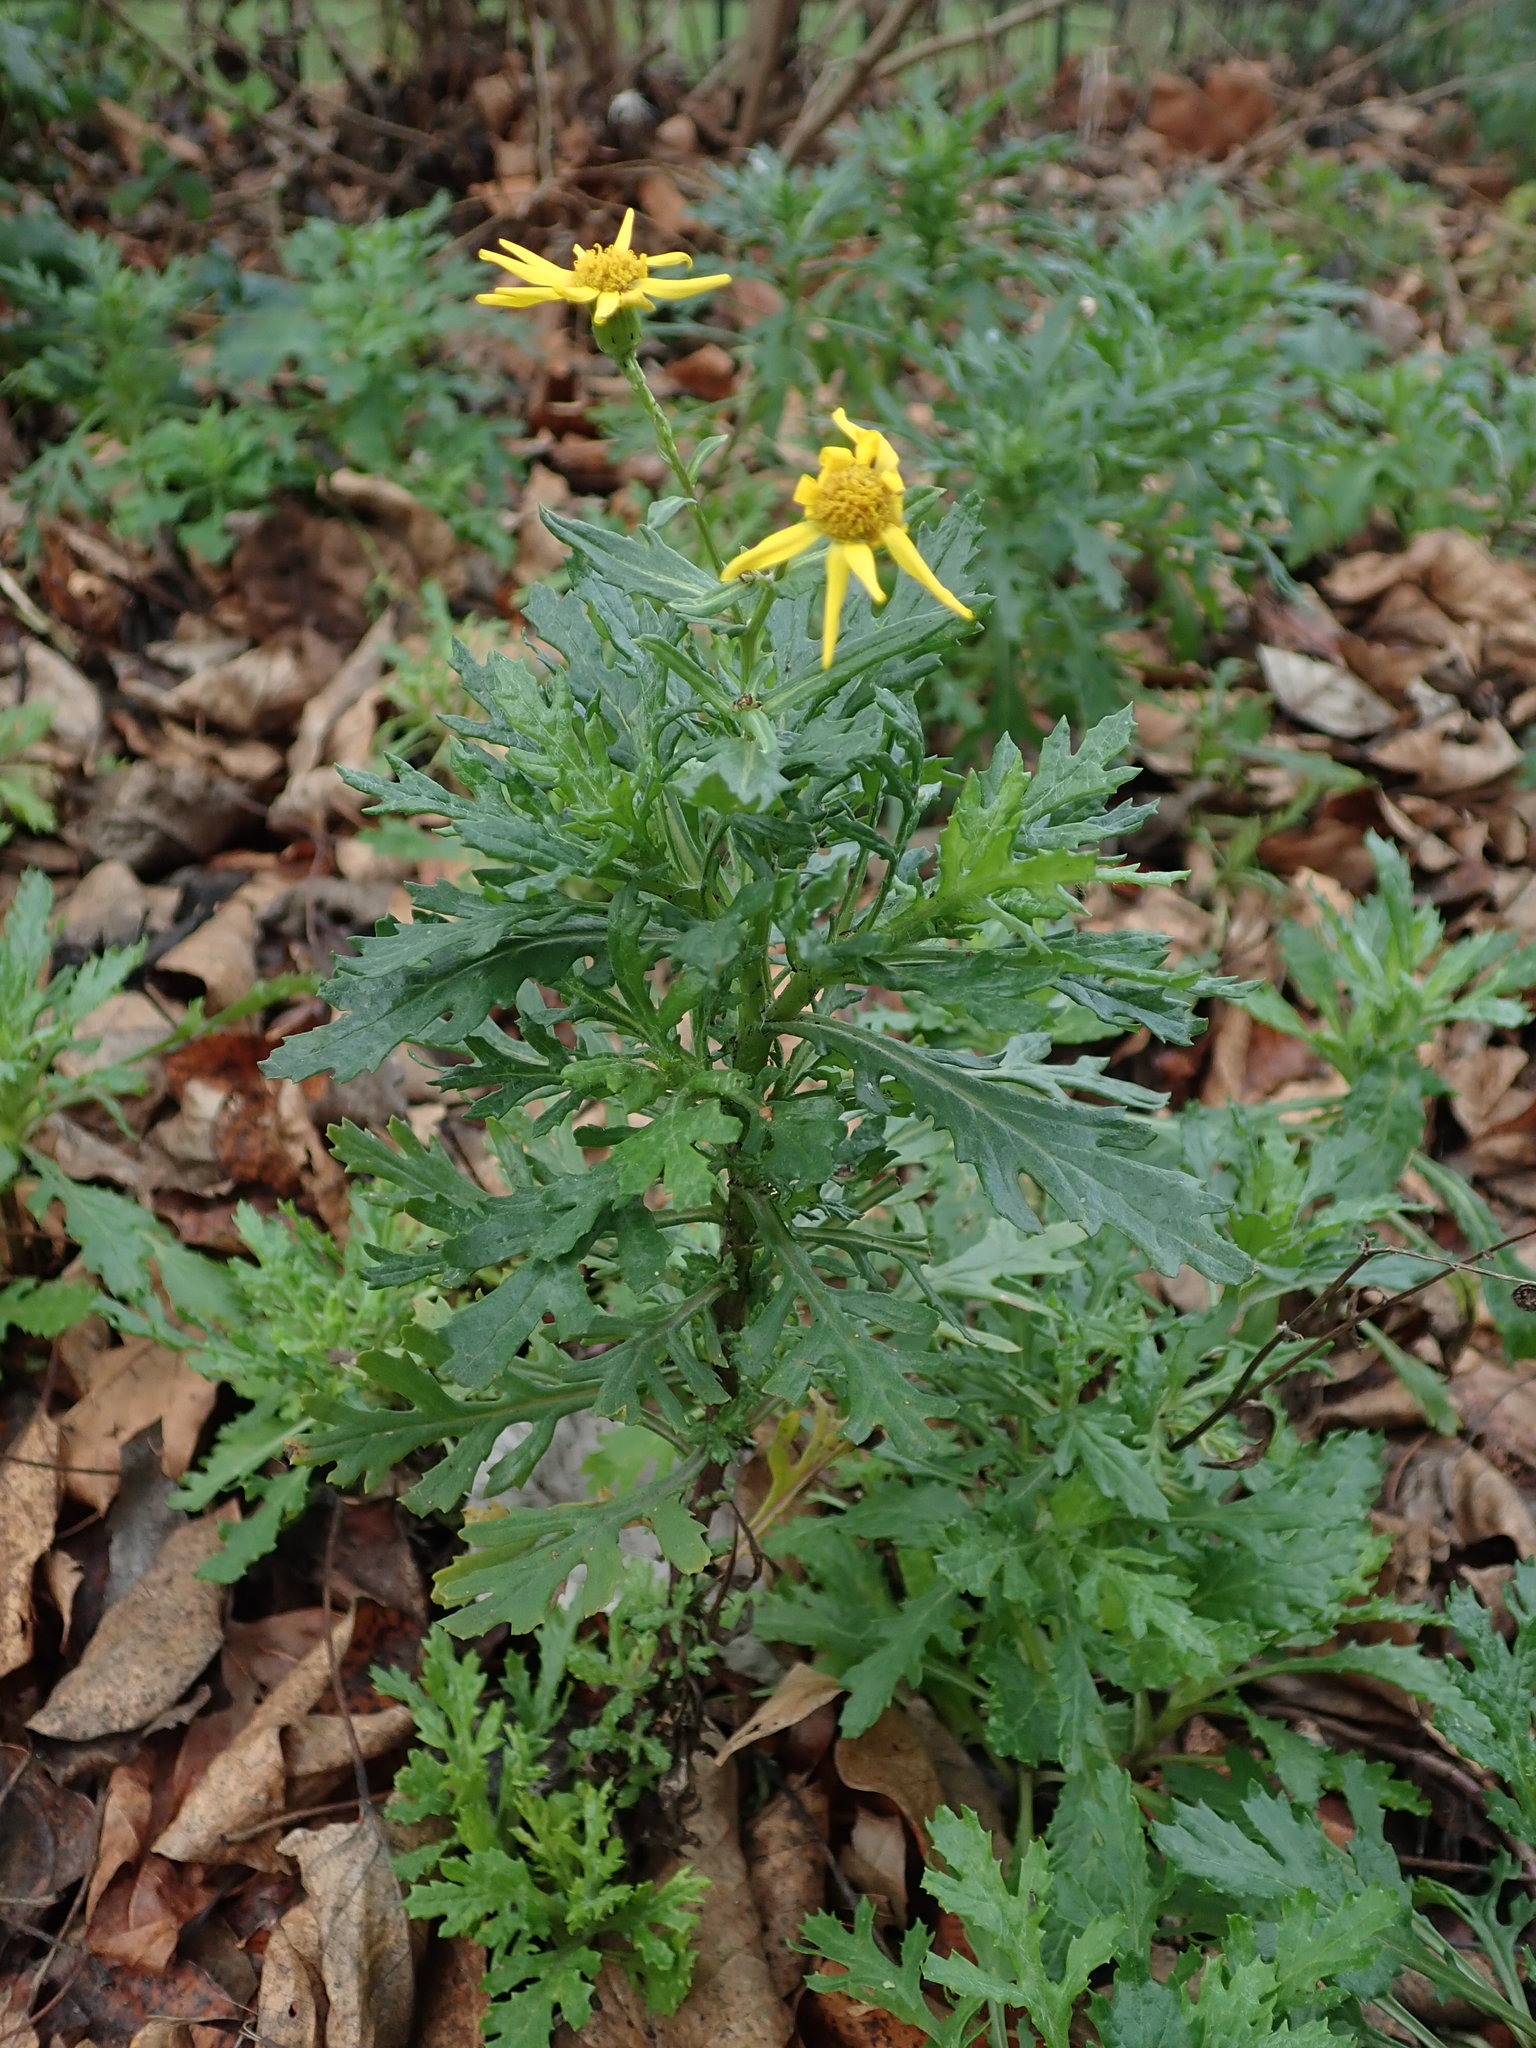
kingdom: Plantae
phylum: Tracheophyta
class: Magnoliopsida
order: Asterales
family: Asteraceae
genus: Senecio
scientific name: Senecio squalidus
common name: Oxford ragwort
